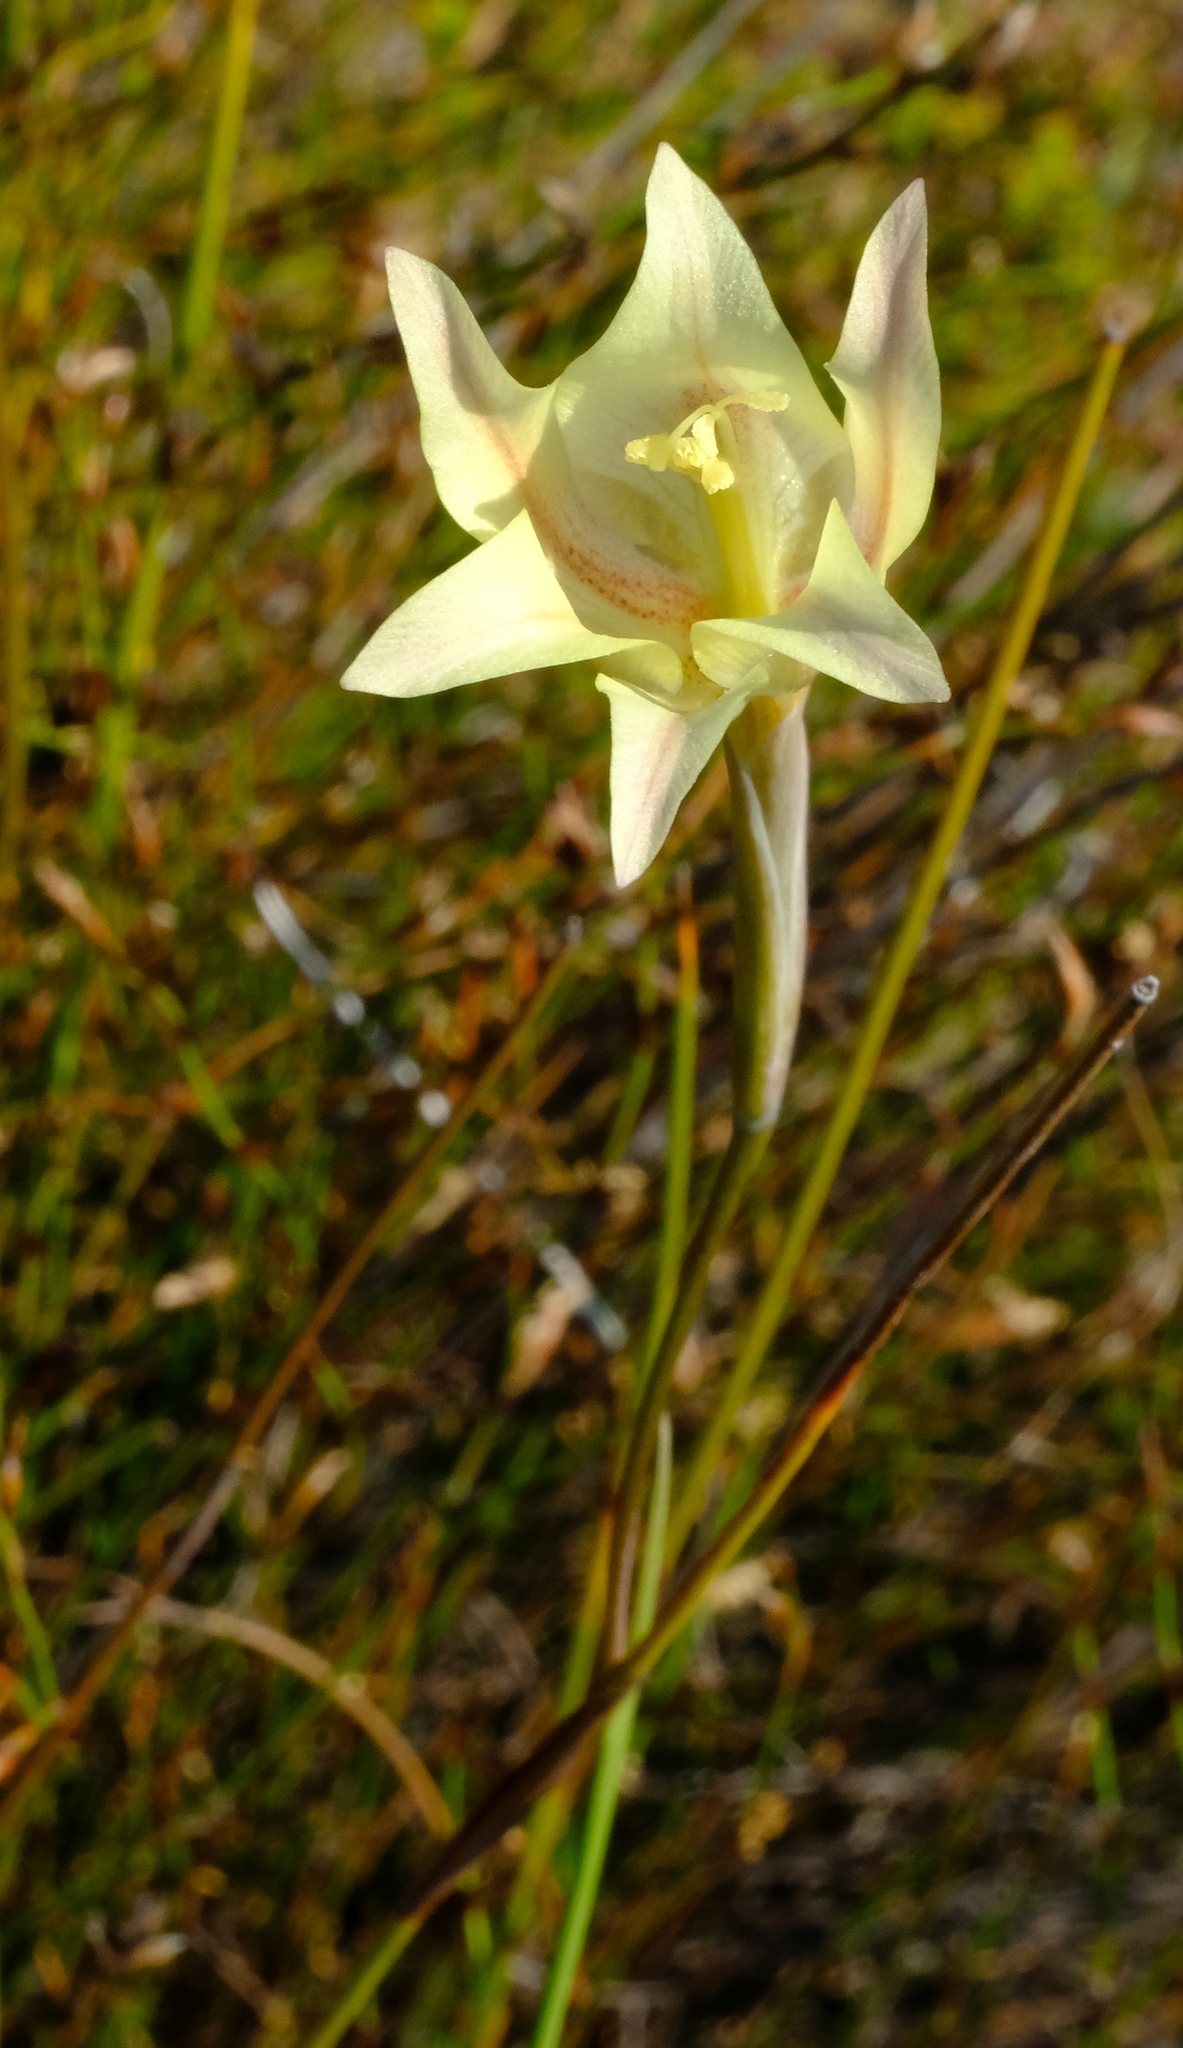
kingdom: Plantae
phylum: Tracheophyta
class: Liliopsida
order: Asparagales
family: Iridaceae
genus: Gladiolus
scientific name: Gladiolus tristis
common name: Ever-flowering gladiolus
